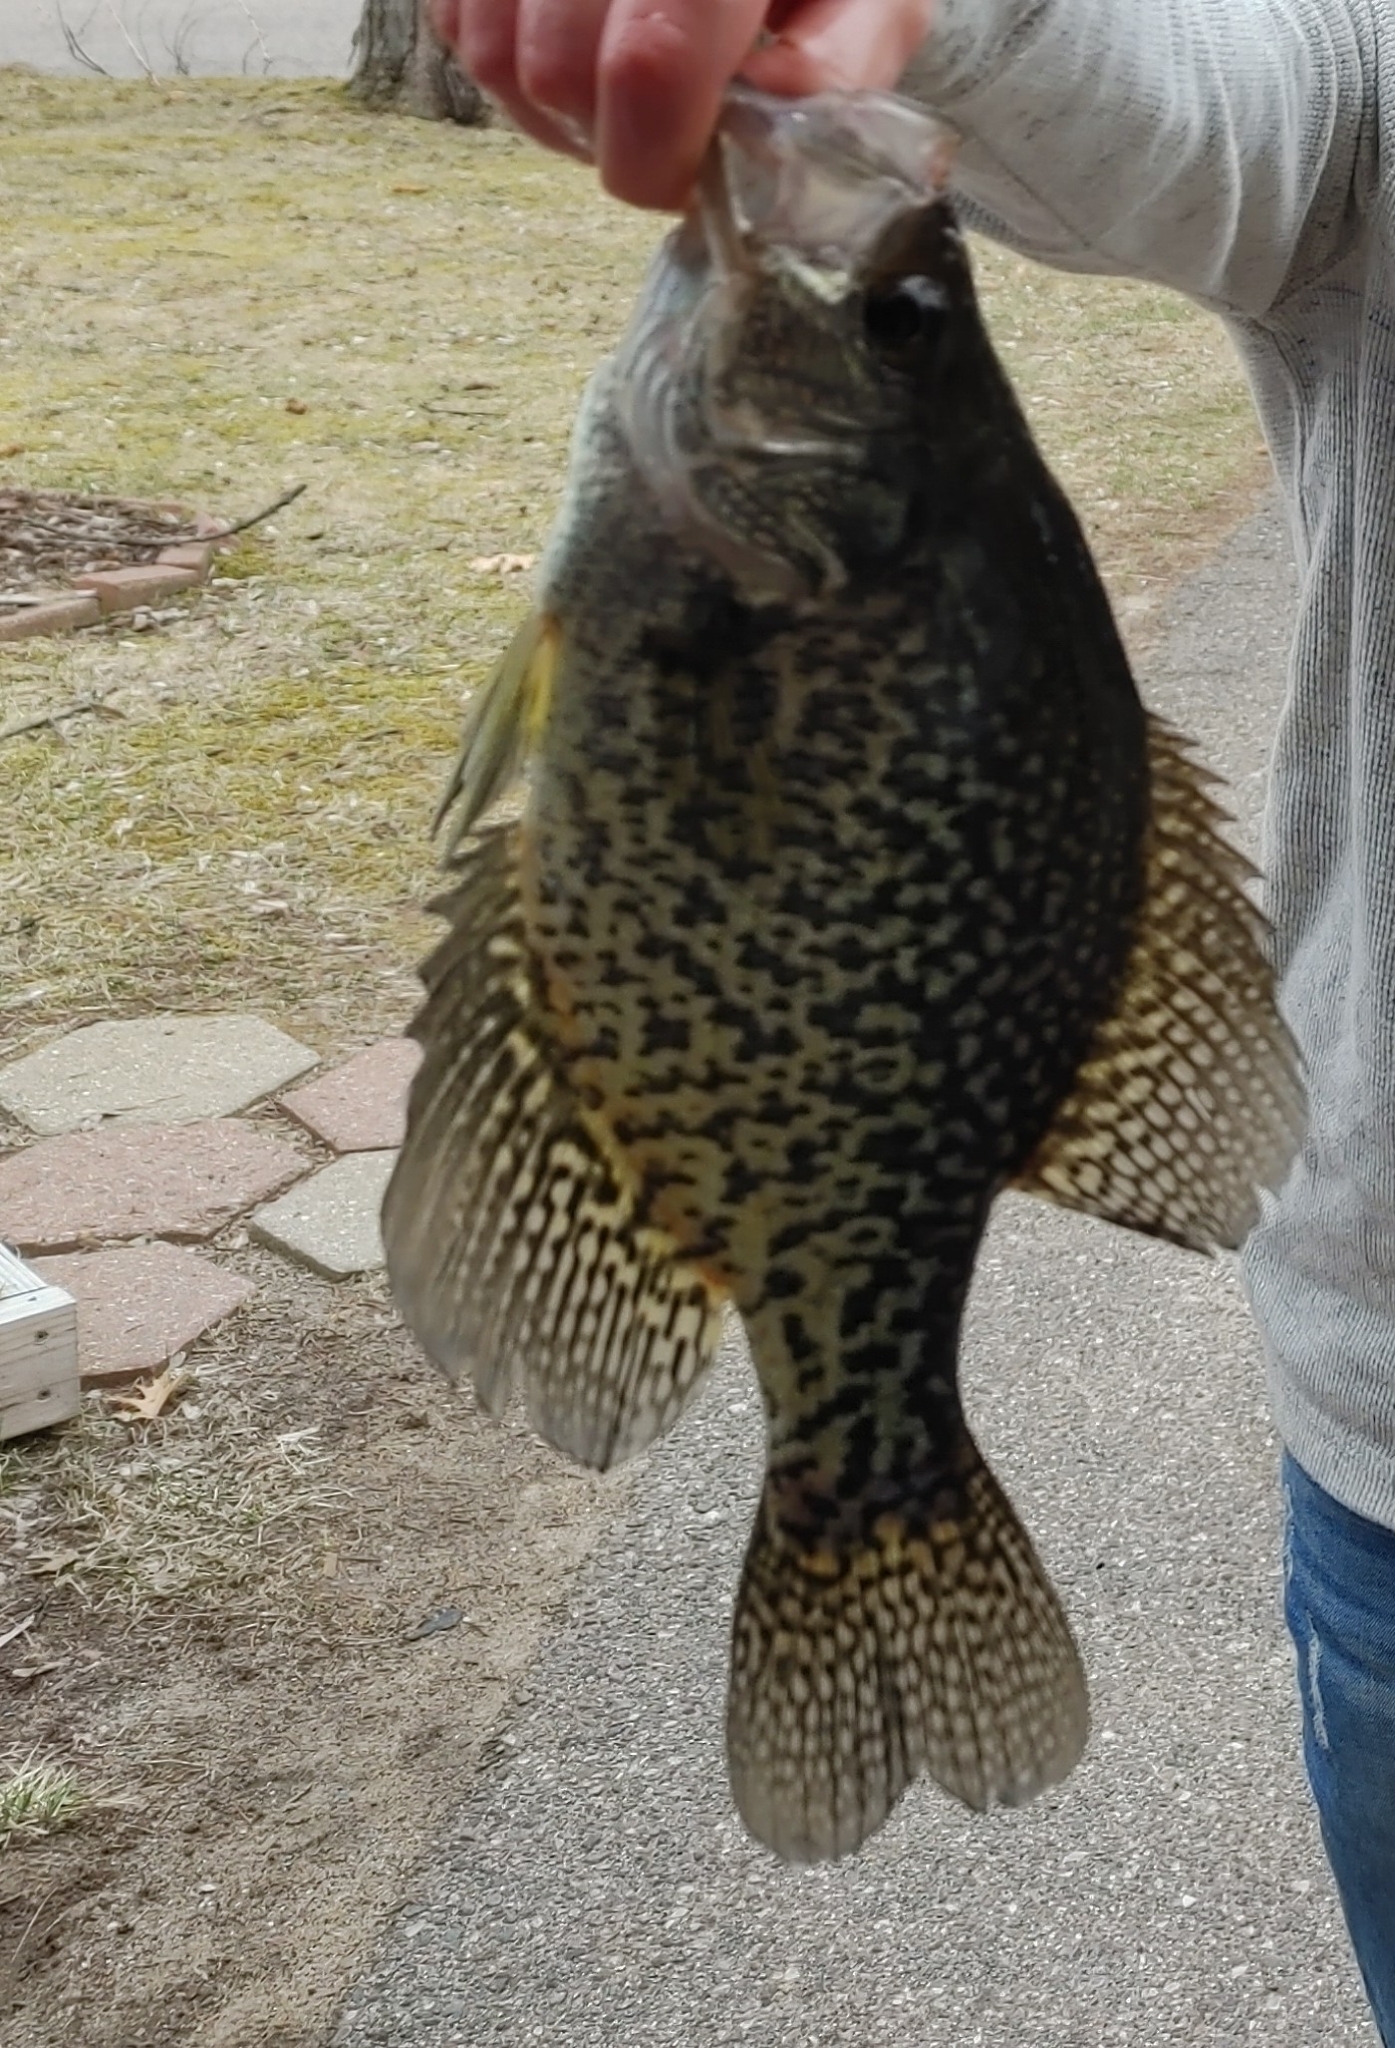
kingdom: Animalia
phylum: Chordata
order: Perciformes
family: Centrarchidae
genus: Pomoxis
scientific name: Pomoxis nigromaculatus
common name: Black crappie
